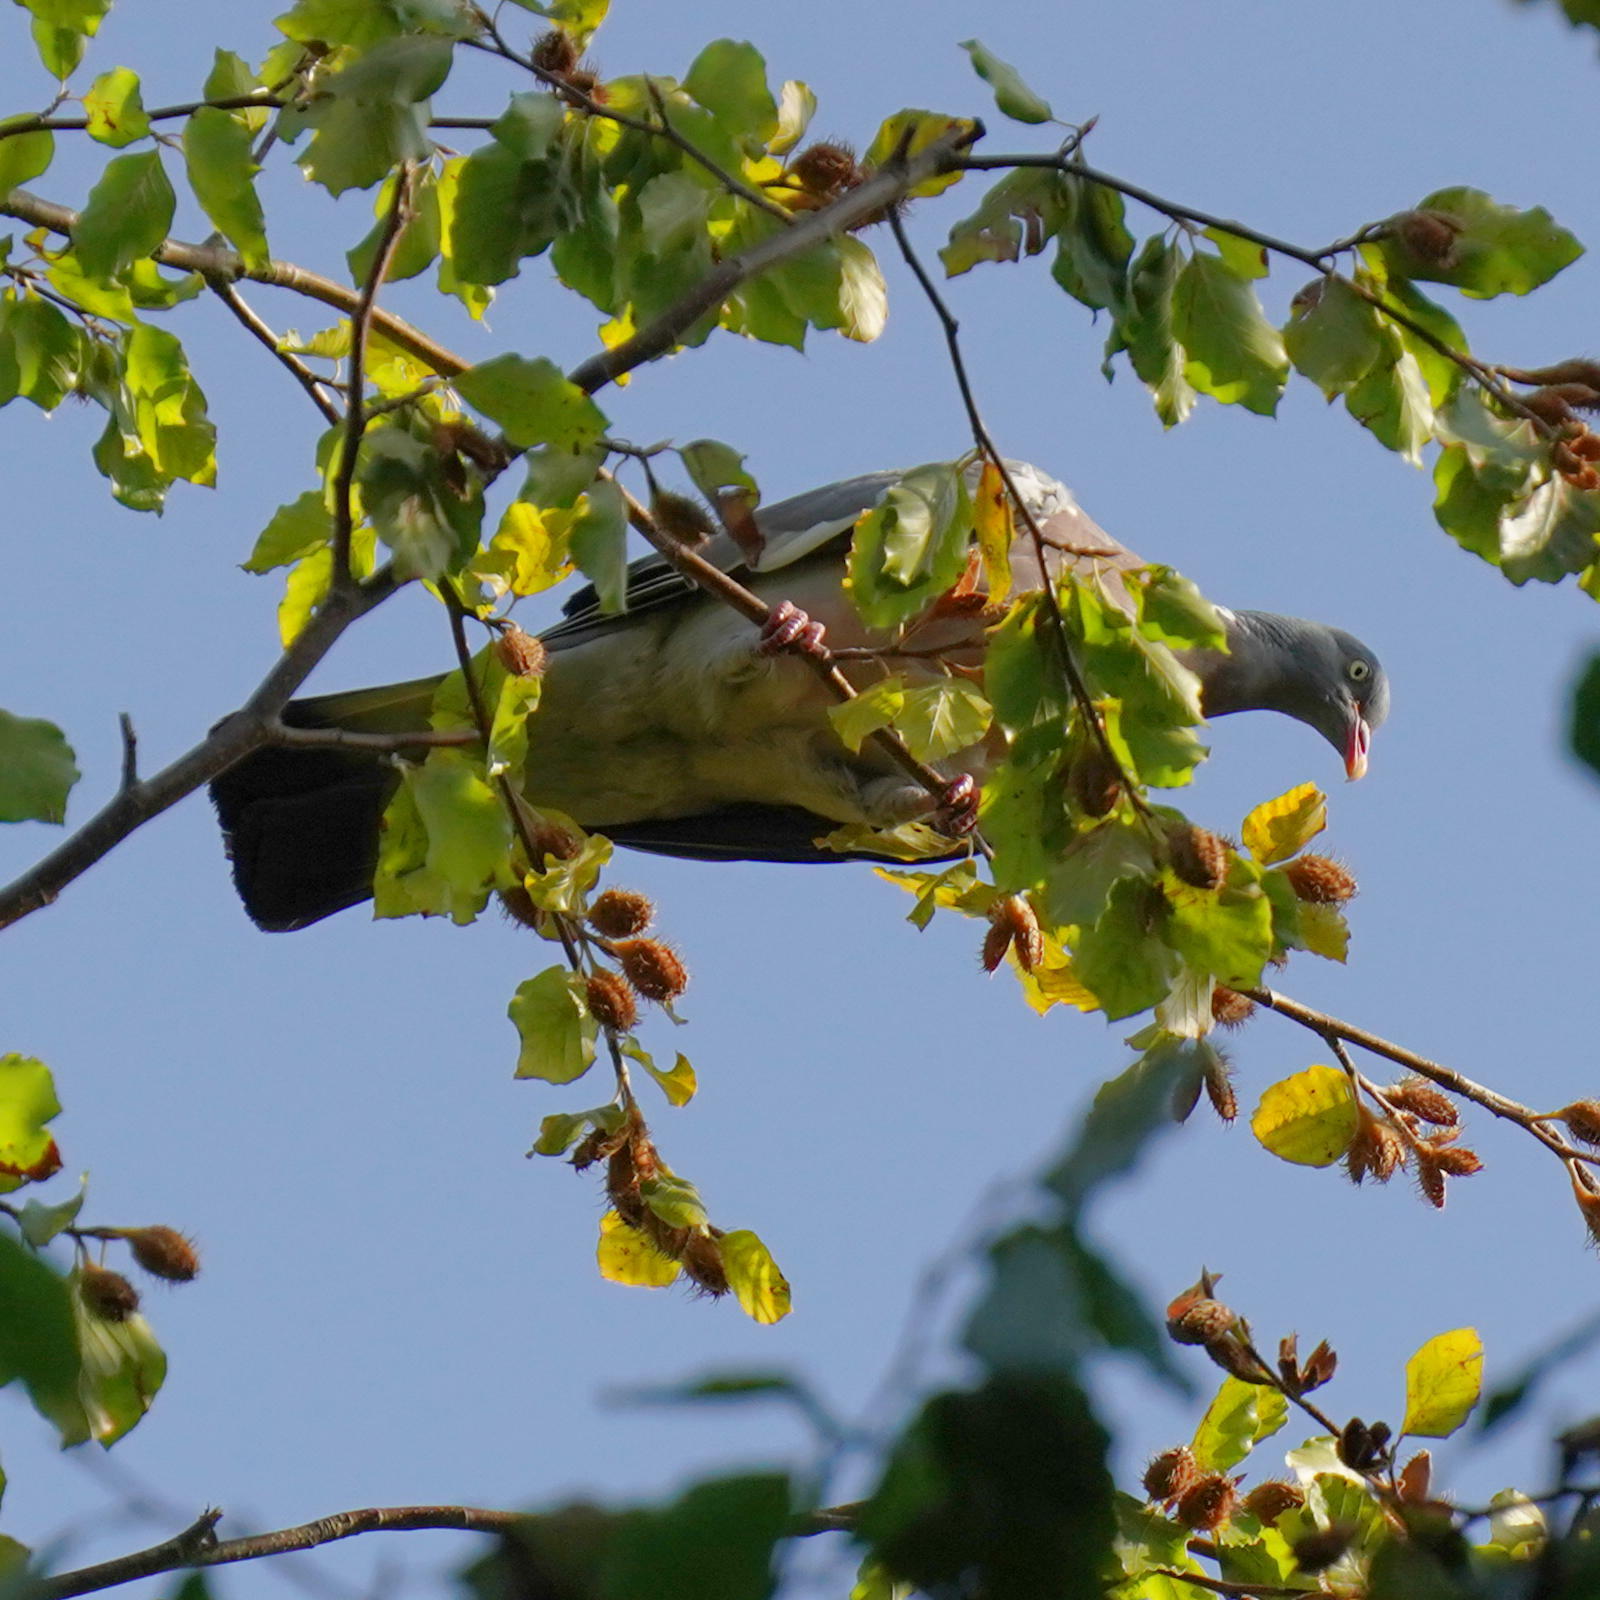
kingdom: Animalia
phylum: Chordata
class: Aves
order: Columbiformes
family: Columbidae
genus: Columba
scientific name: Columba palumbus
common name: Common wood pigeon
